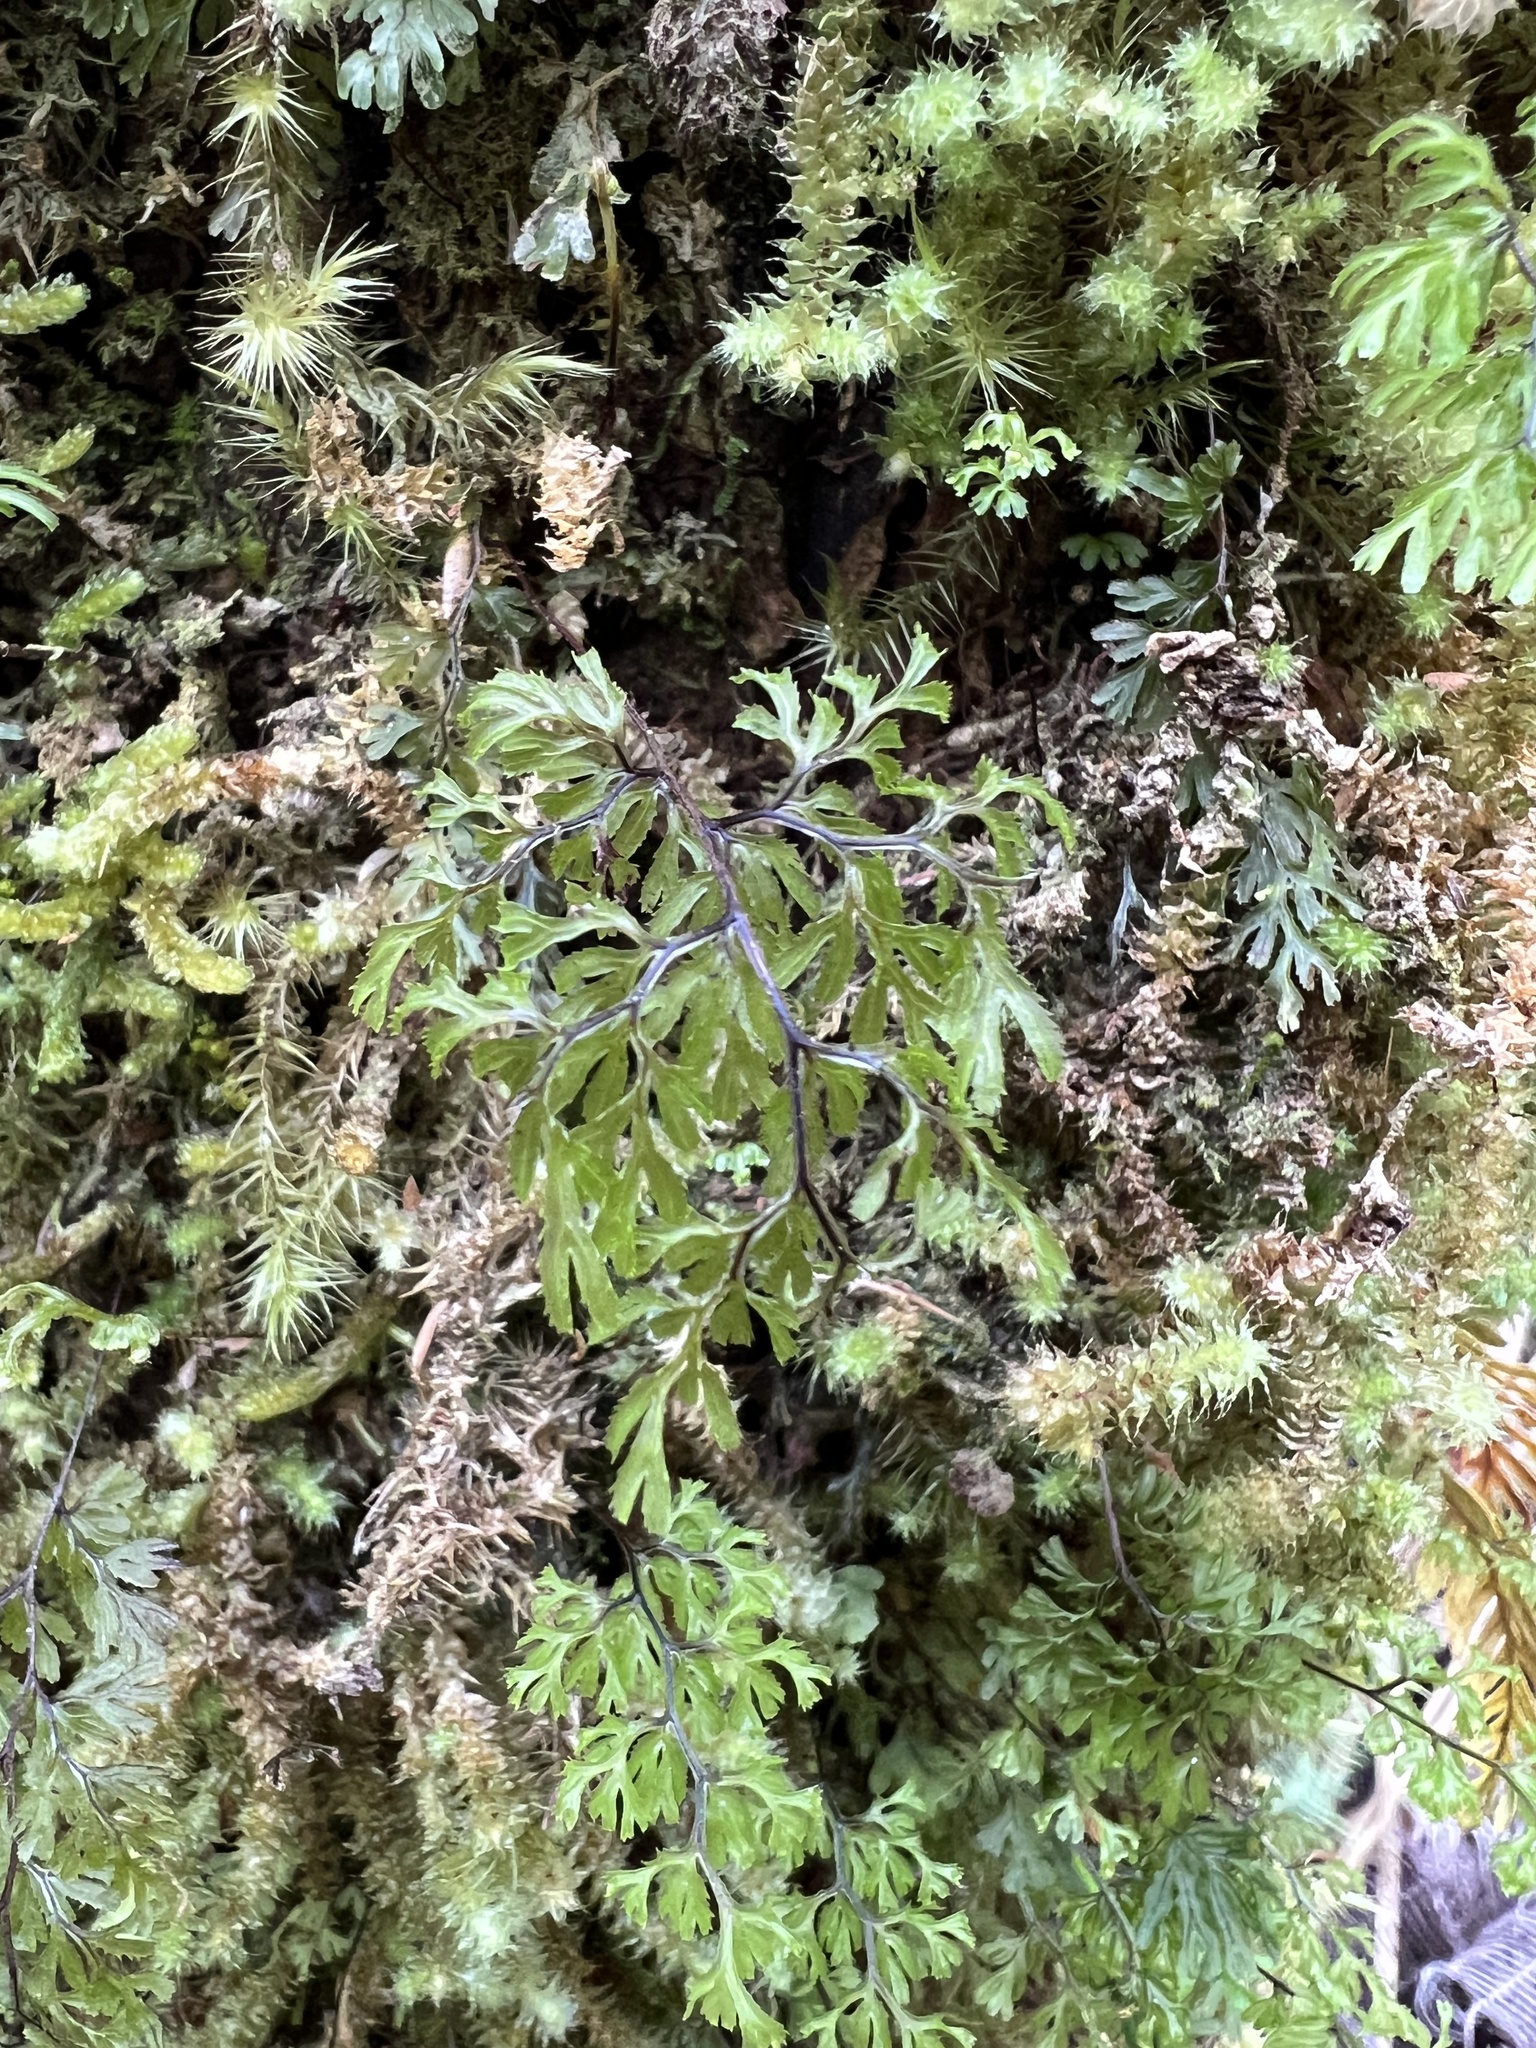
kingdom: Plantae
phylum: Tracheophyta
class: Polypodiopsida
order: Hymenophyllales
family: Hymenophyllaceae
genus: Hymenophyllum
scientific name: Hymenophyllum multifidum
